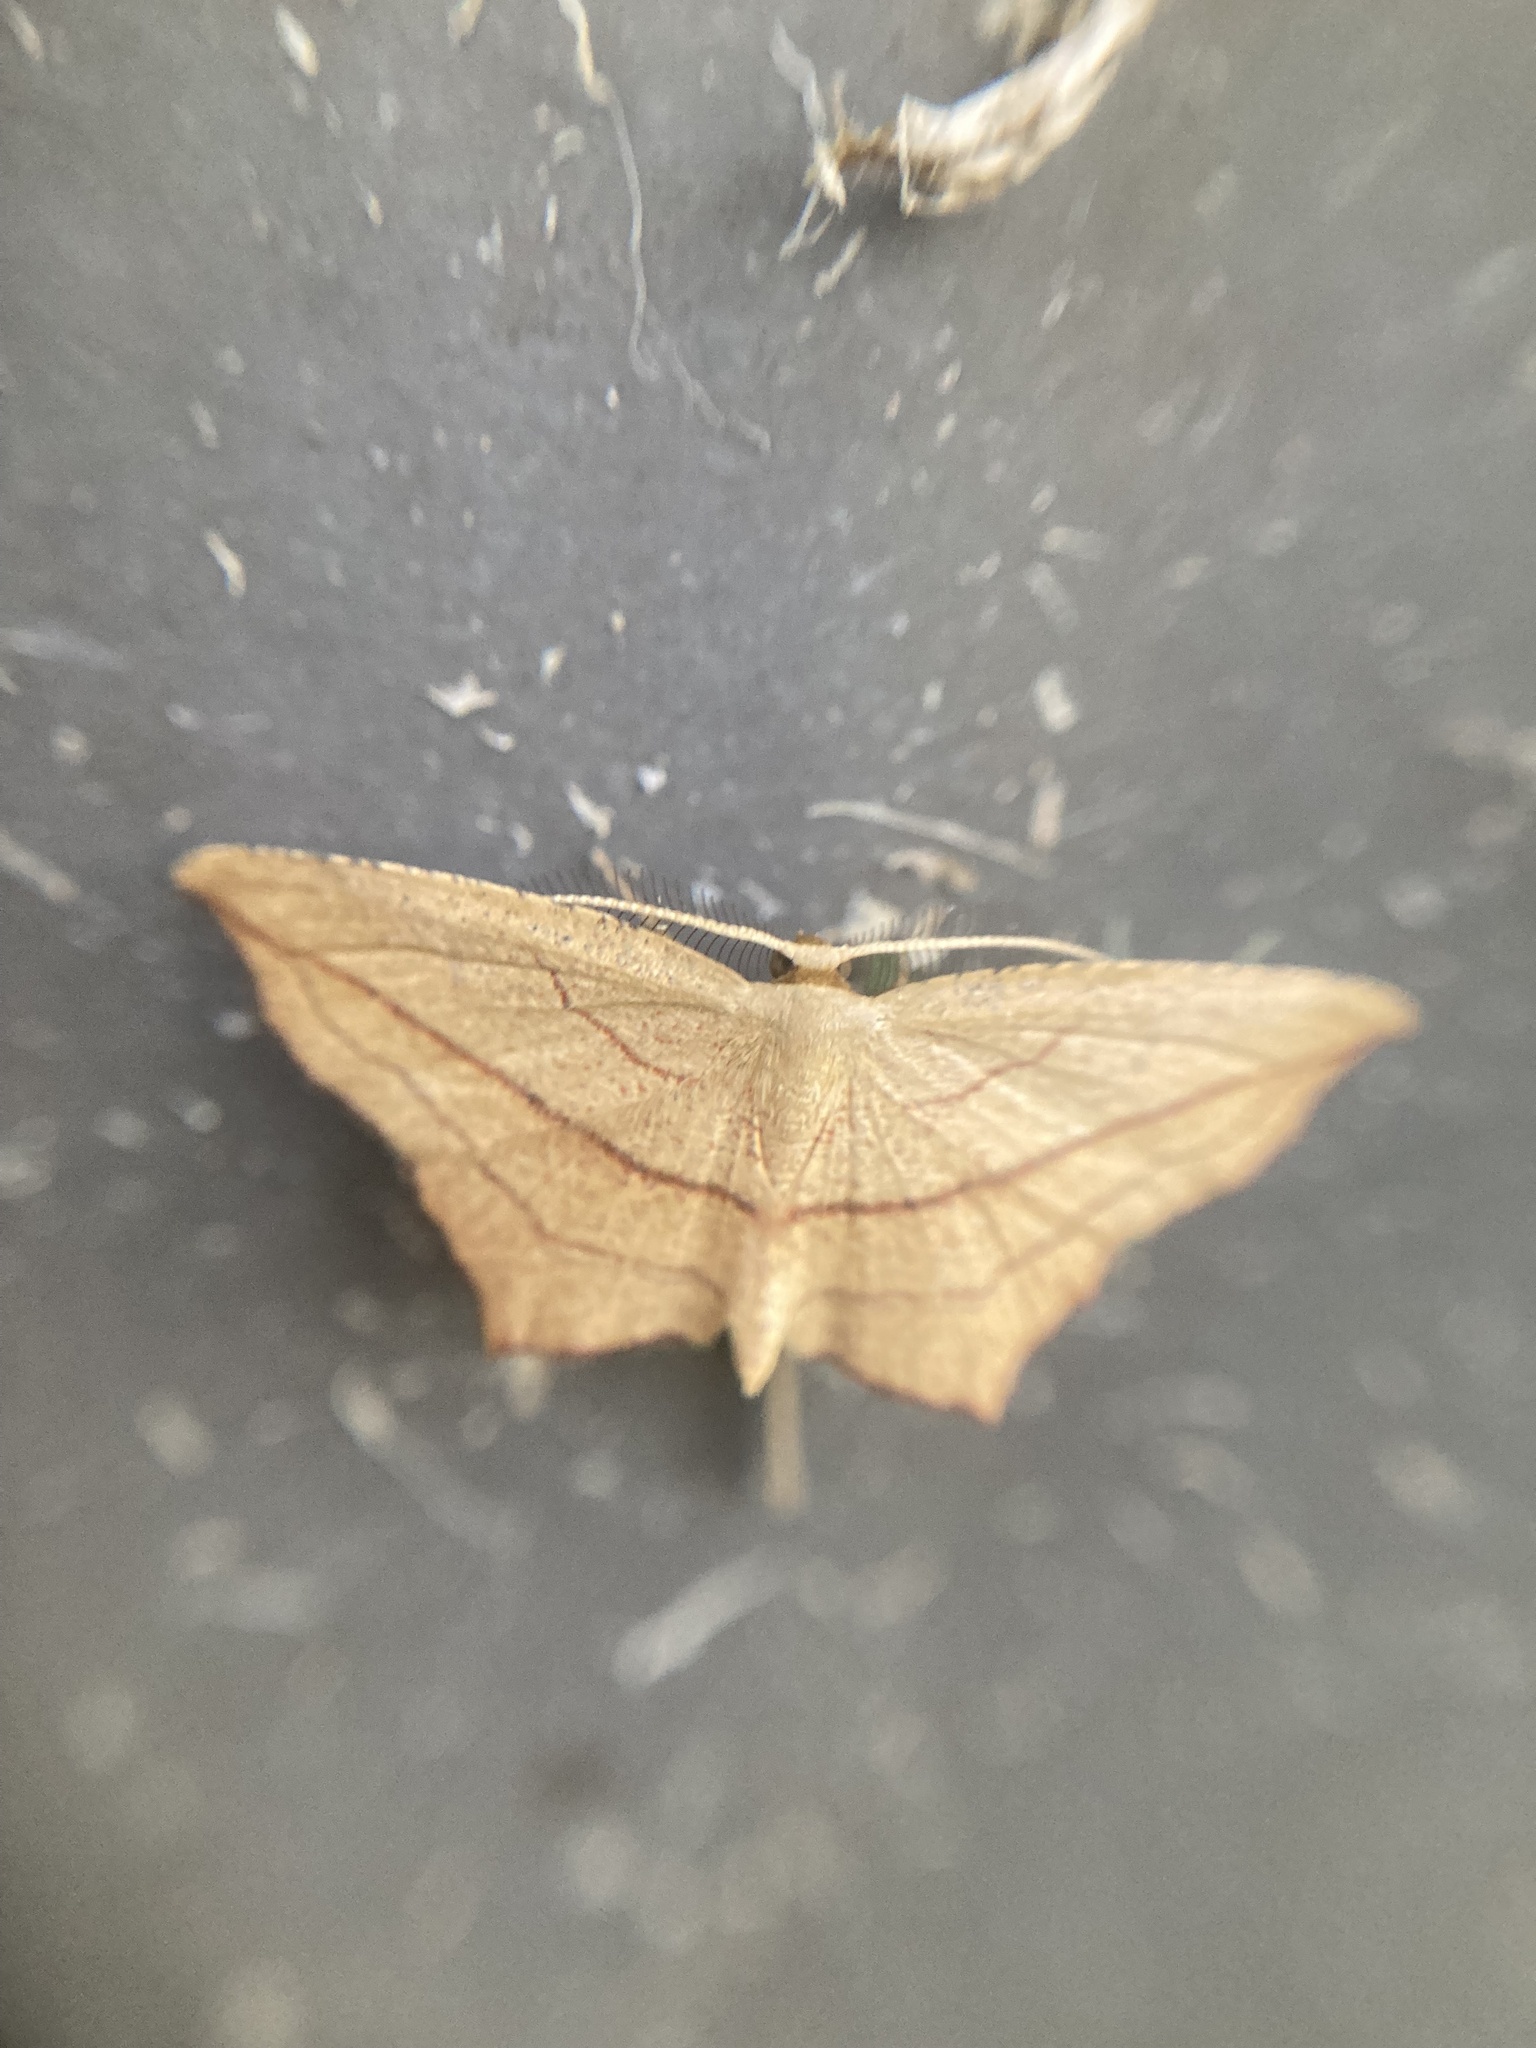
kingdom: Animalia
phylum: Arthropoda
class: Insecta
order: Lepidoptera
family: Geometridae
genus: Timandra
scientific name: Timandra amaturaria
